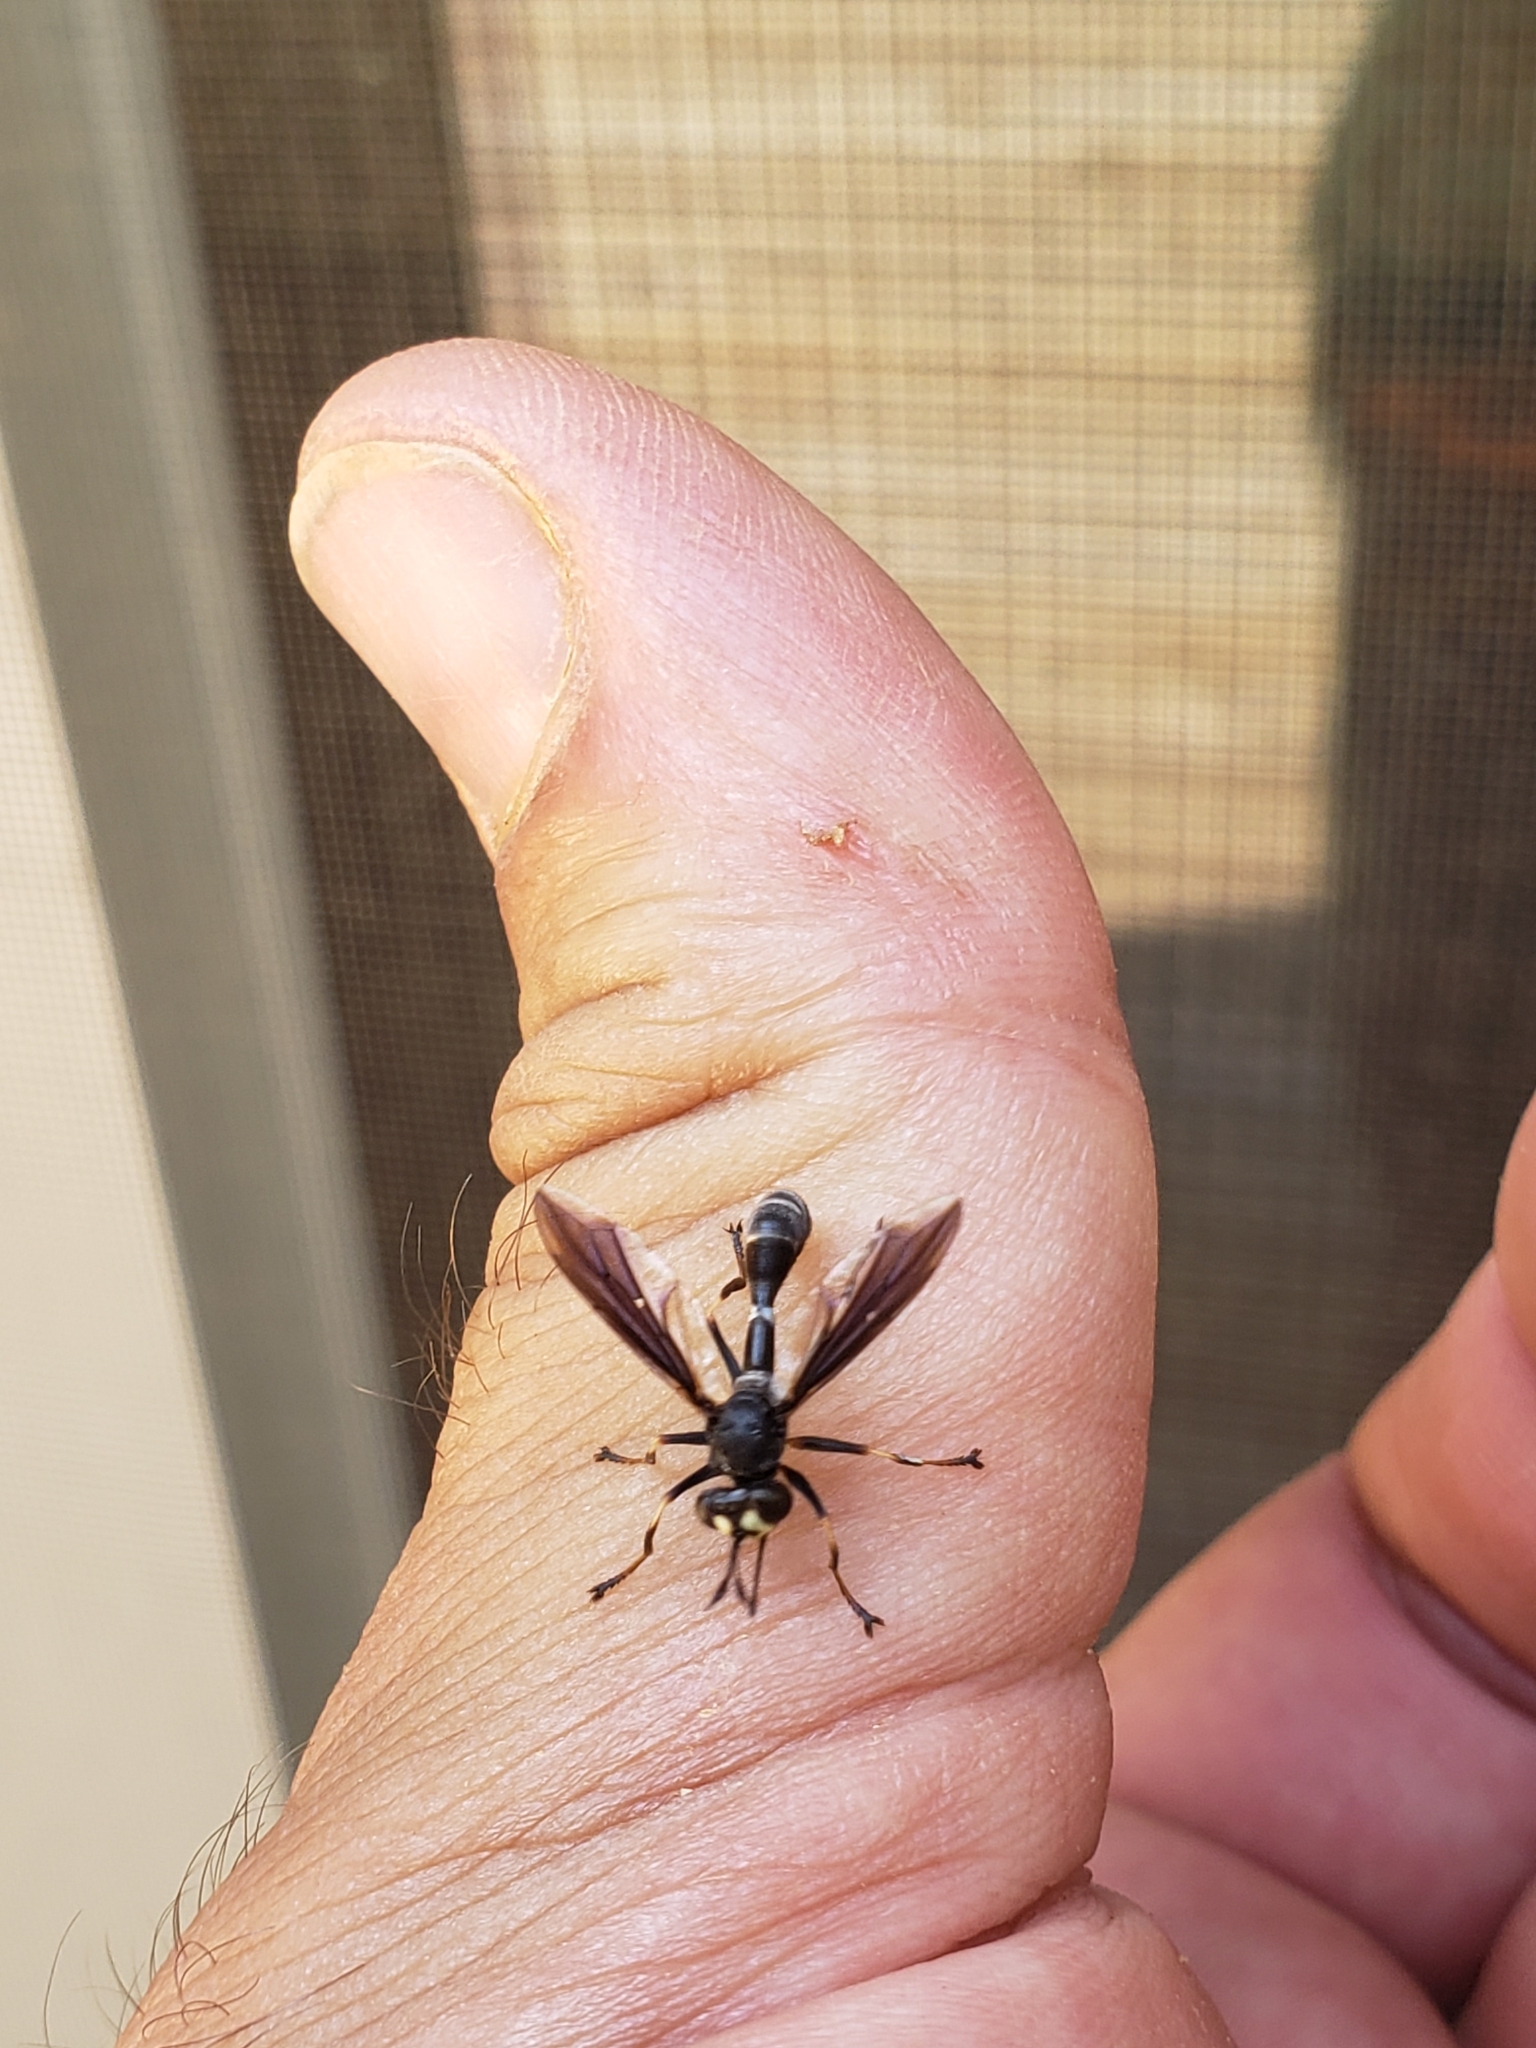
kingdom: Animalia
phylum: Arthropoda
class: Insecta
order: Diptera
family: Conopidae
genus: Physocephala
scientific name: Physocephala tibialis
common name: Common eastern physocephala
